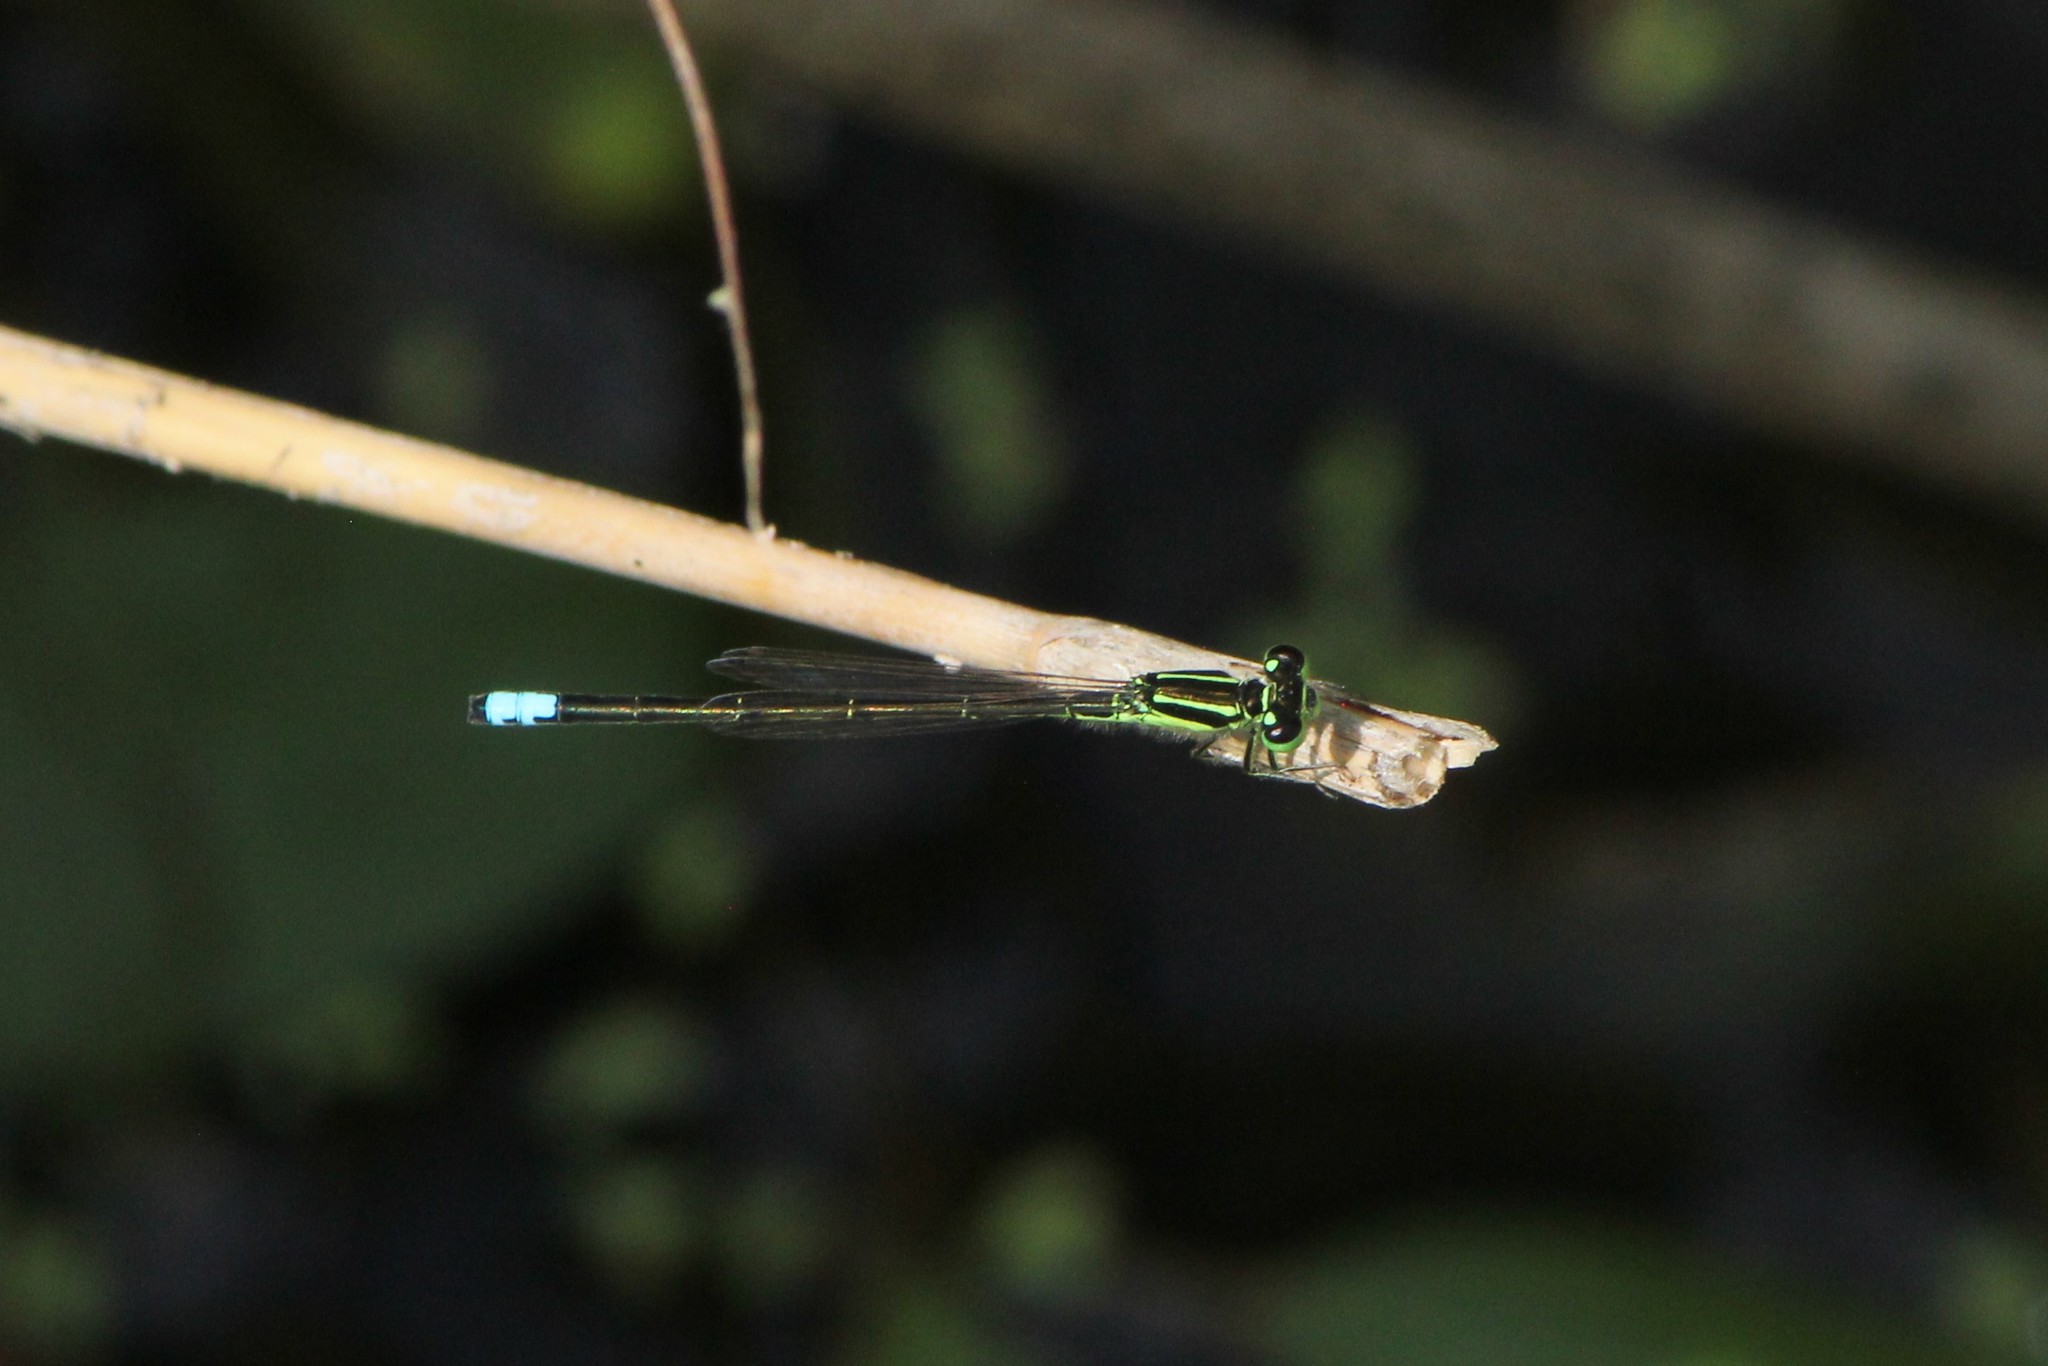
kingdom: Animalia
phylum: Arthropoda
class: Insecta
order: Odonata
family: Coenagrionidae
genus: Ischnura
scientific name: Ischnura verticalis
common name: Eastern forktail
